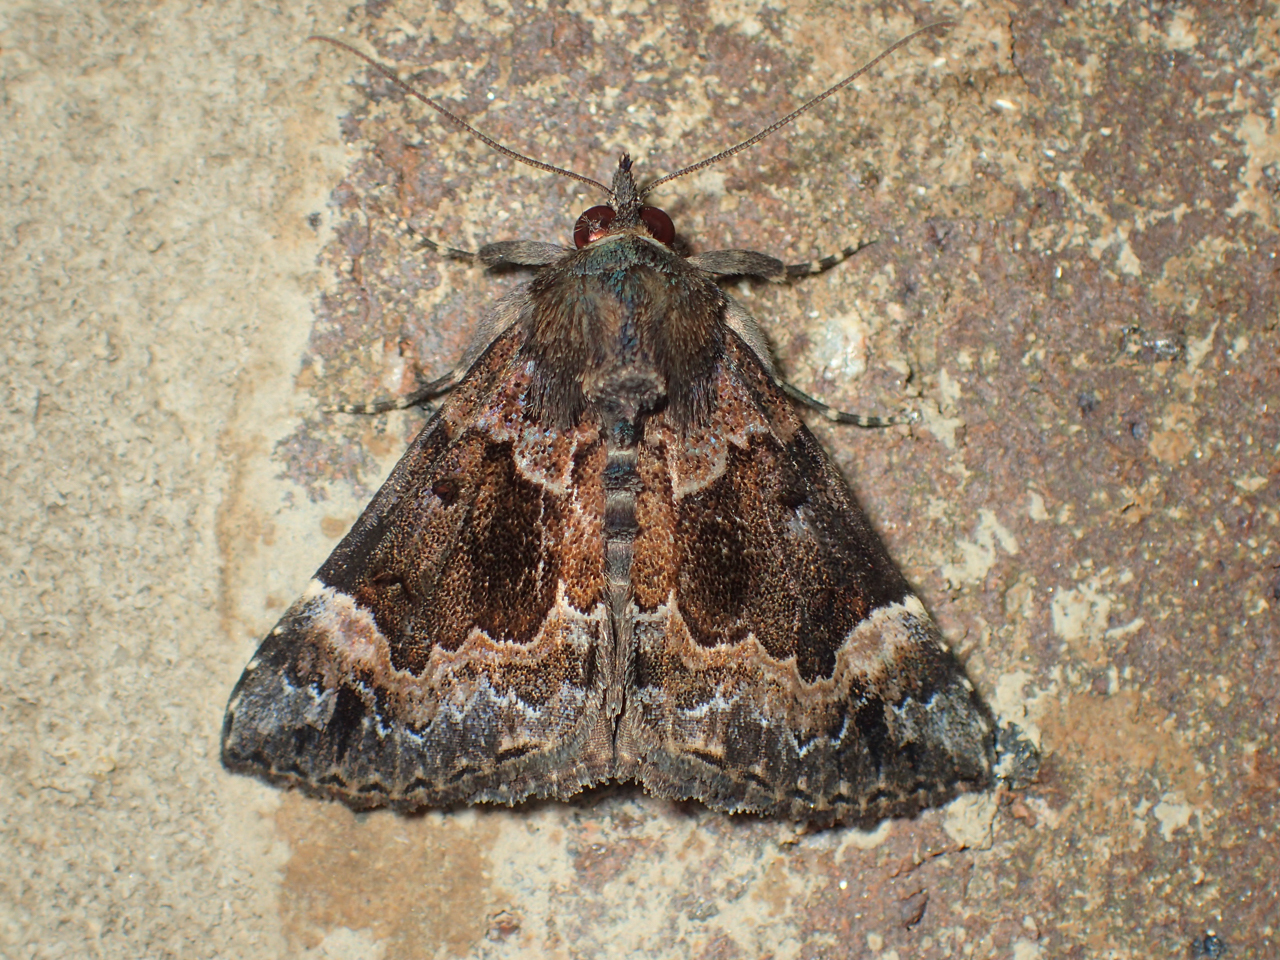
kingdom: Animalia
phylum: Arthropoda
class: Insecta
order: Lepidoptera
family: Erebidae
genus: Hypena
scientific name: Hypena palparia
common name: Mottled bomolocha moth
